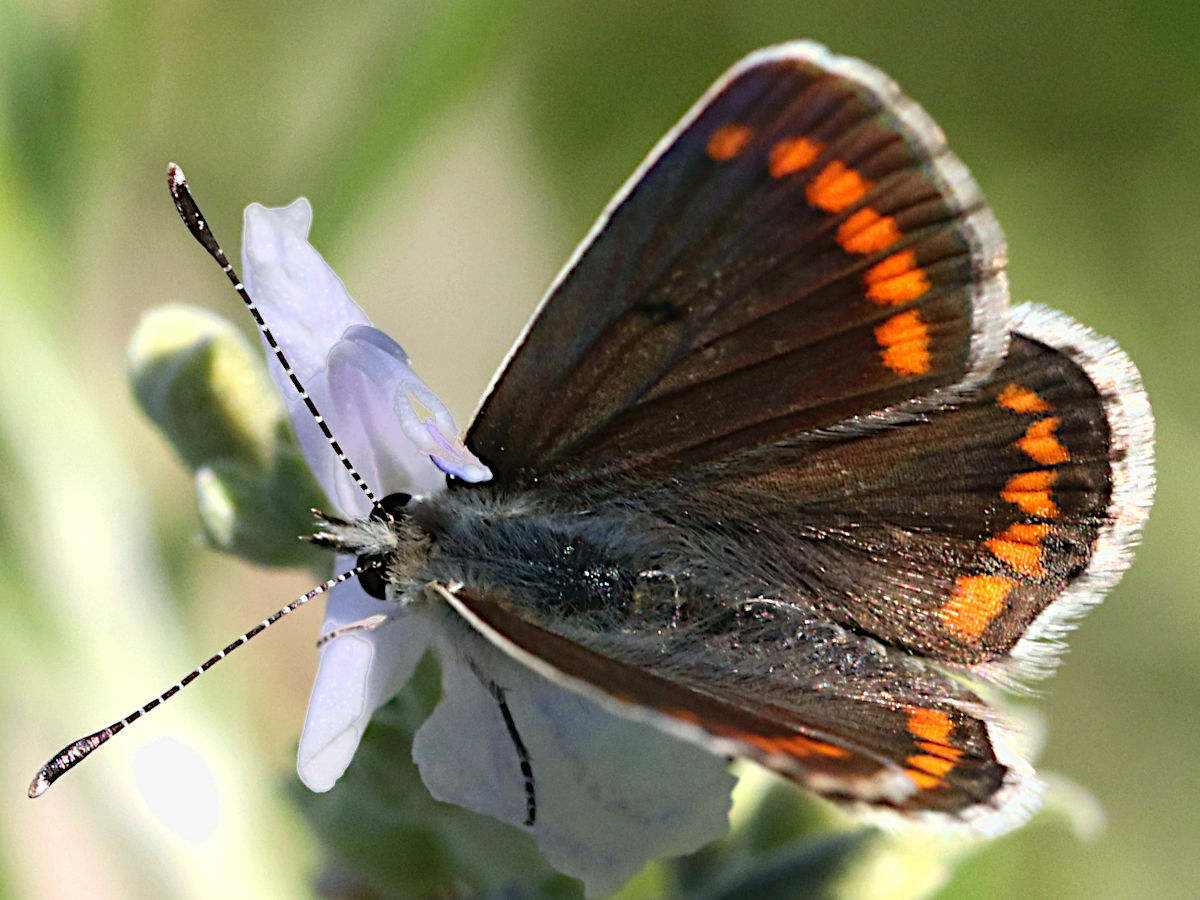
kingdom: Animalia
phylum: Arthropoda
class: Insecta
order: Lepidoptera
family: Lycaenidae
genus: Aricia
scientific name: Aricia agestis
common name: Brown argus
